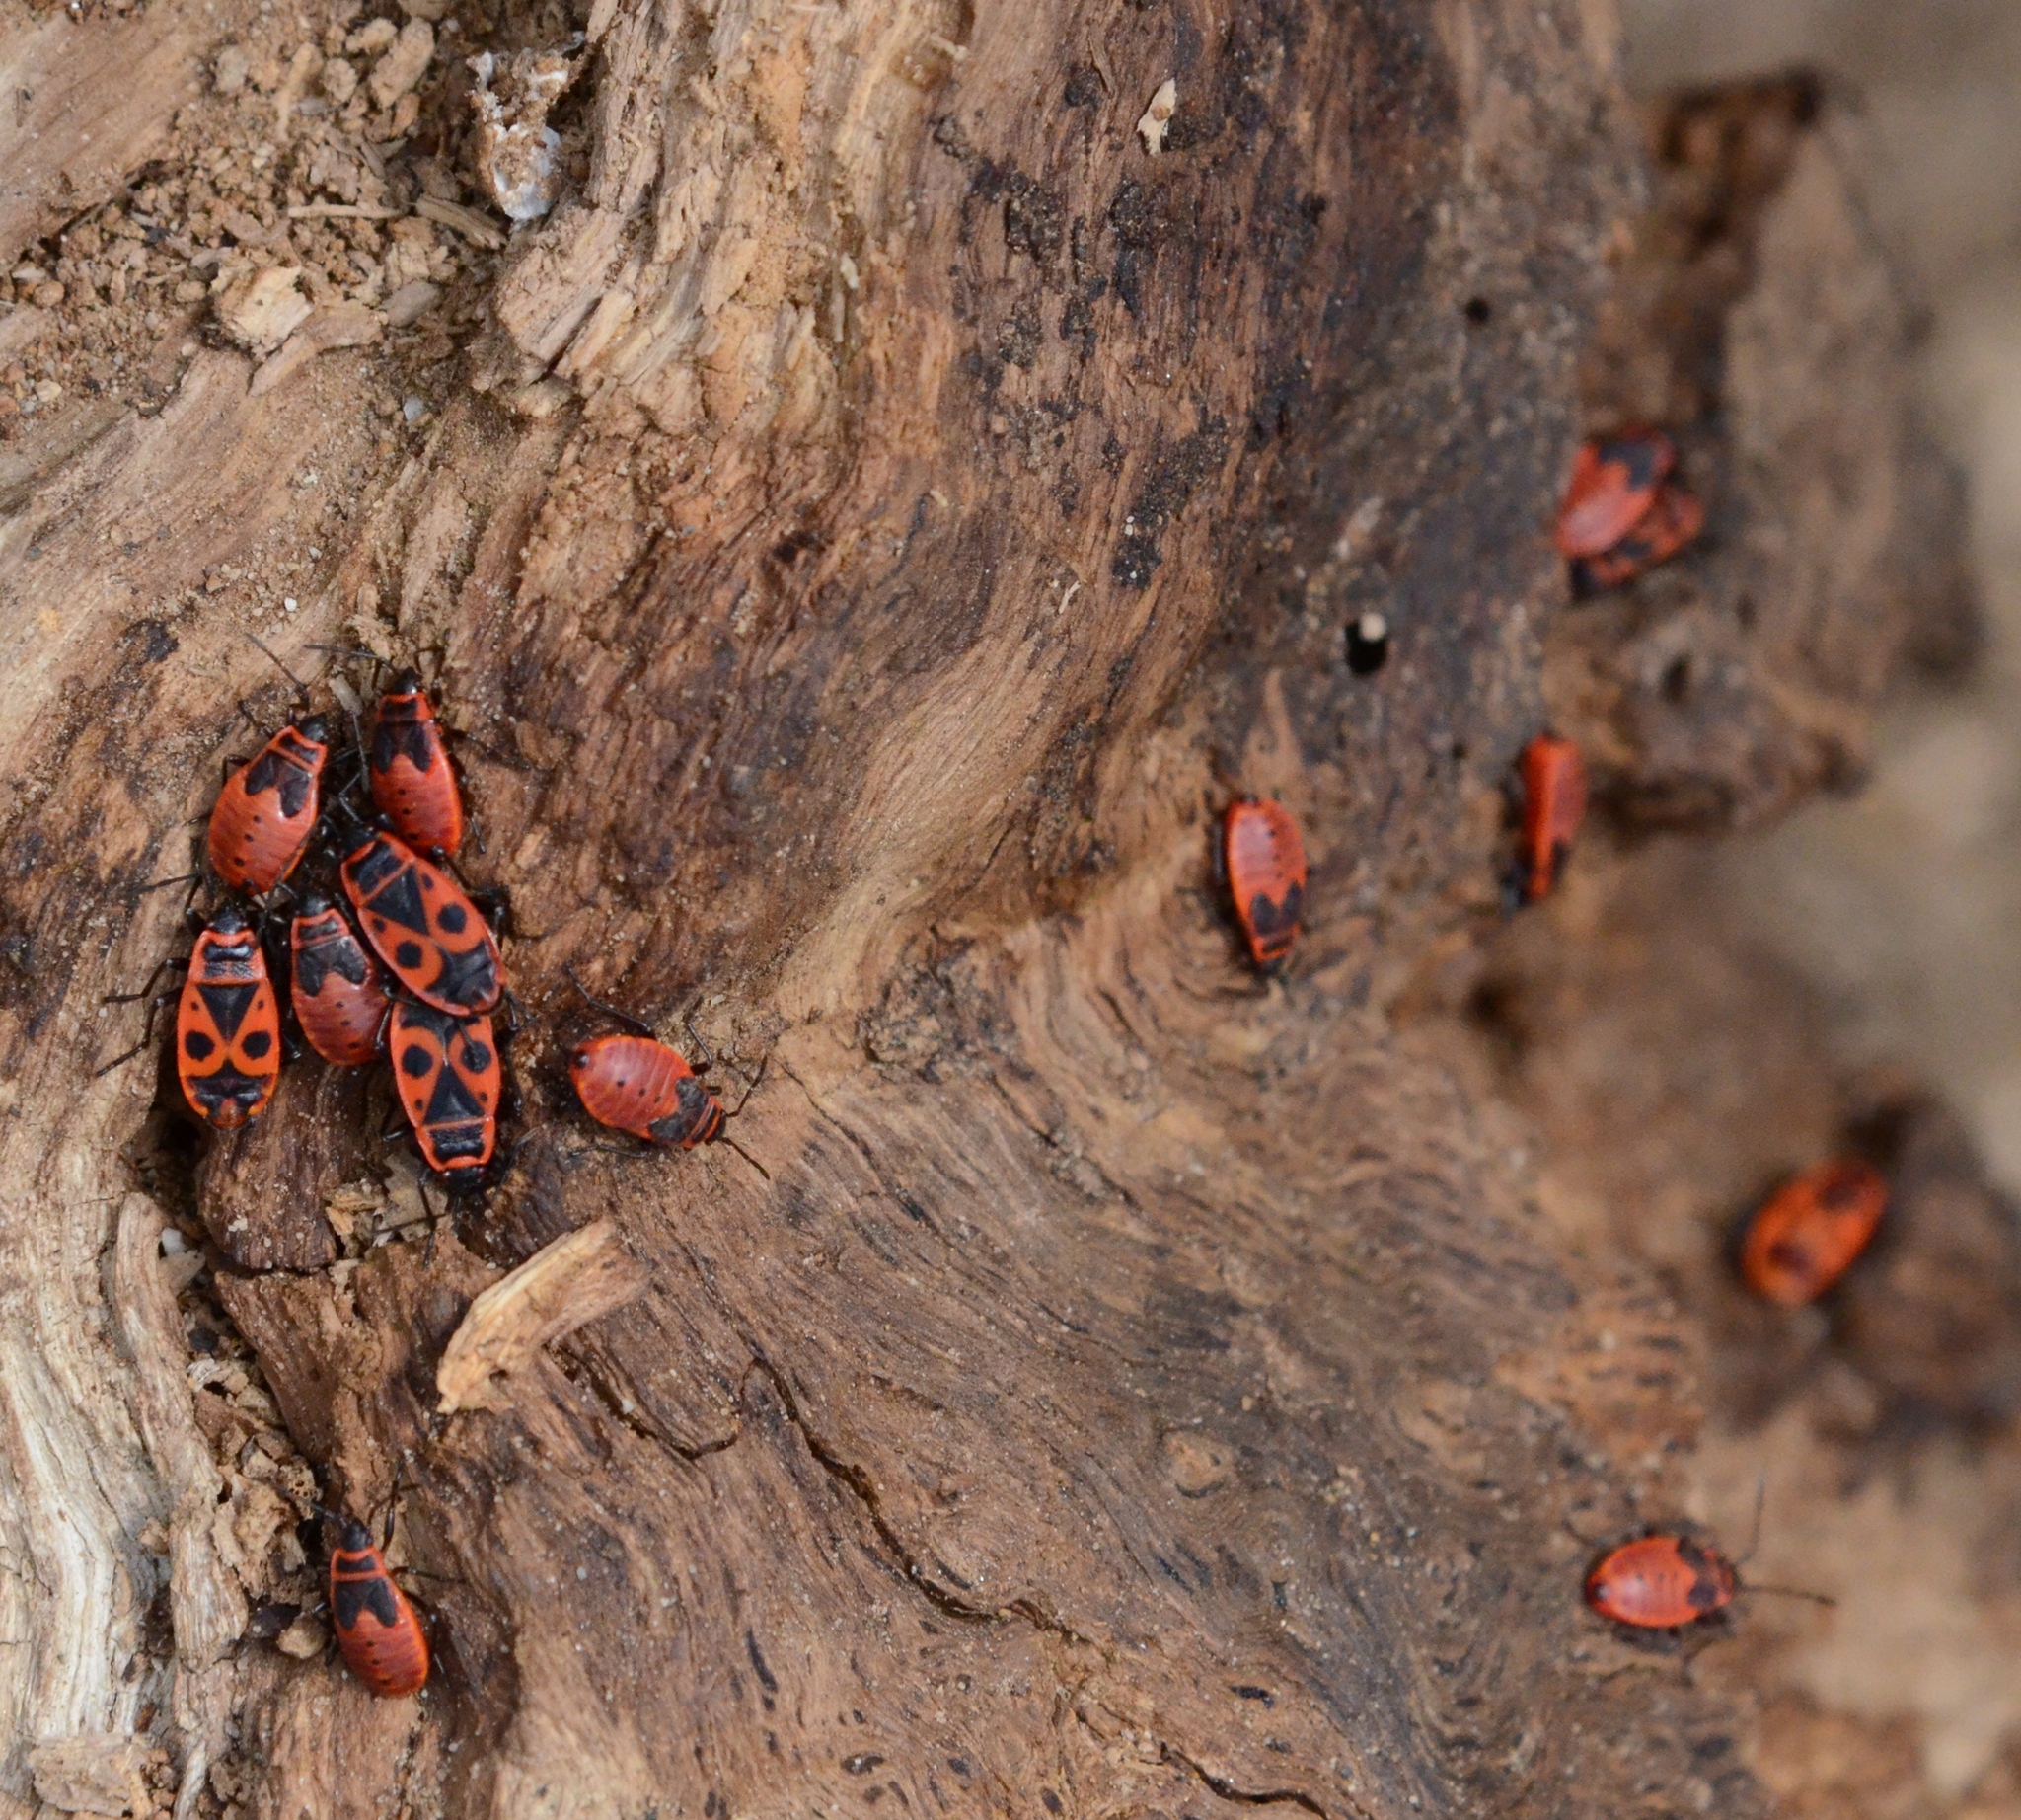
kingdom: Animalia
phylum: Arthropoda
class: Insecta
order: Hemiptera
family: Pyrrhocoridae
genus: Pyrrhocoris
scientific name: Pyrrhocoris apterus
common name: Firebug
